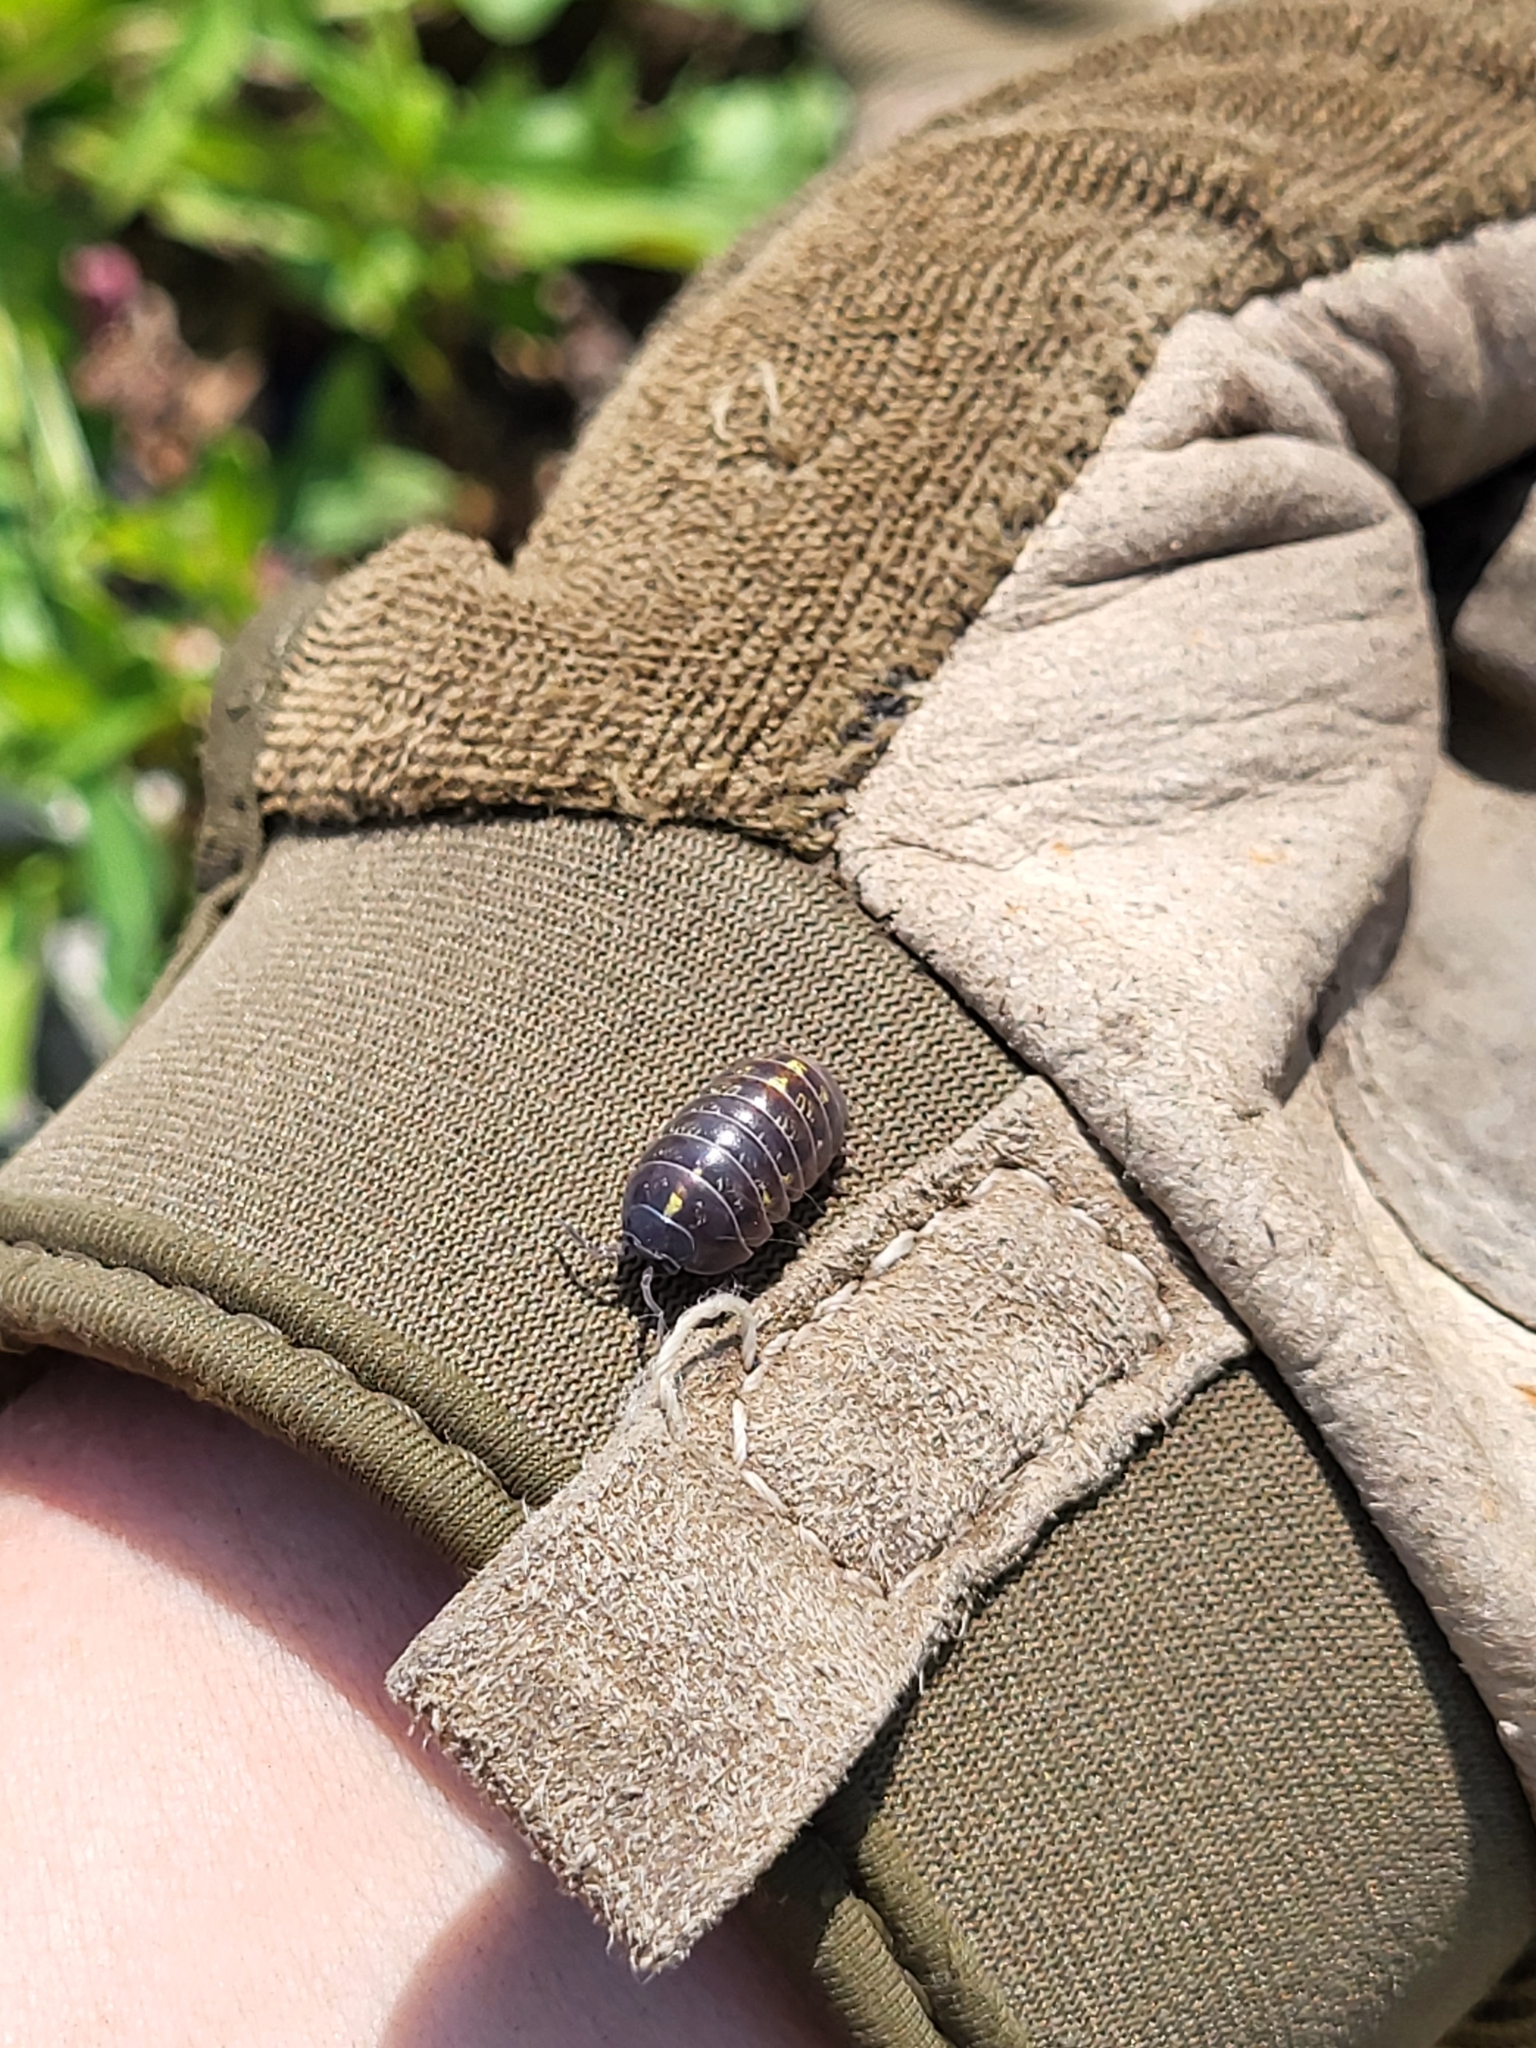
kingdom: Animalia
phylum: Arthropoda
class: Malacostraca
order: Isopoda
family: Armadillidiidae
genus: Armadillidium
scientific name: Armadillidium vulgare
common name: Common pill woodlouse
